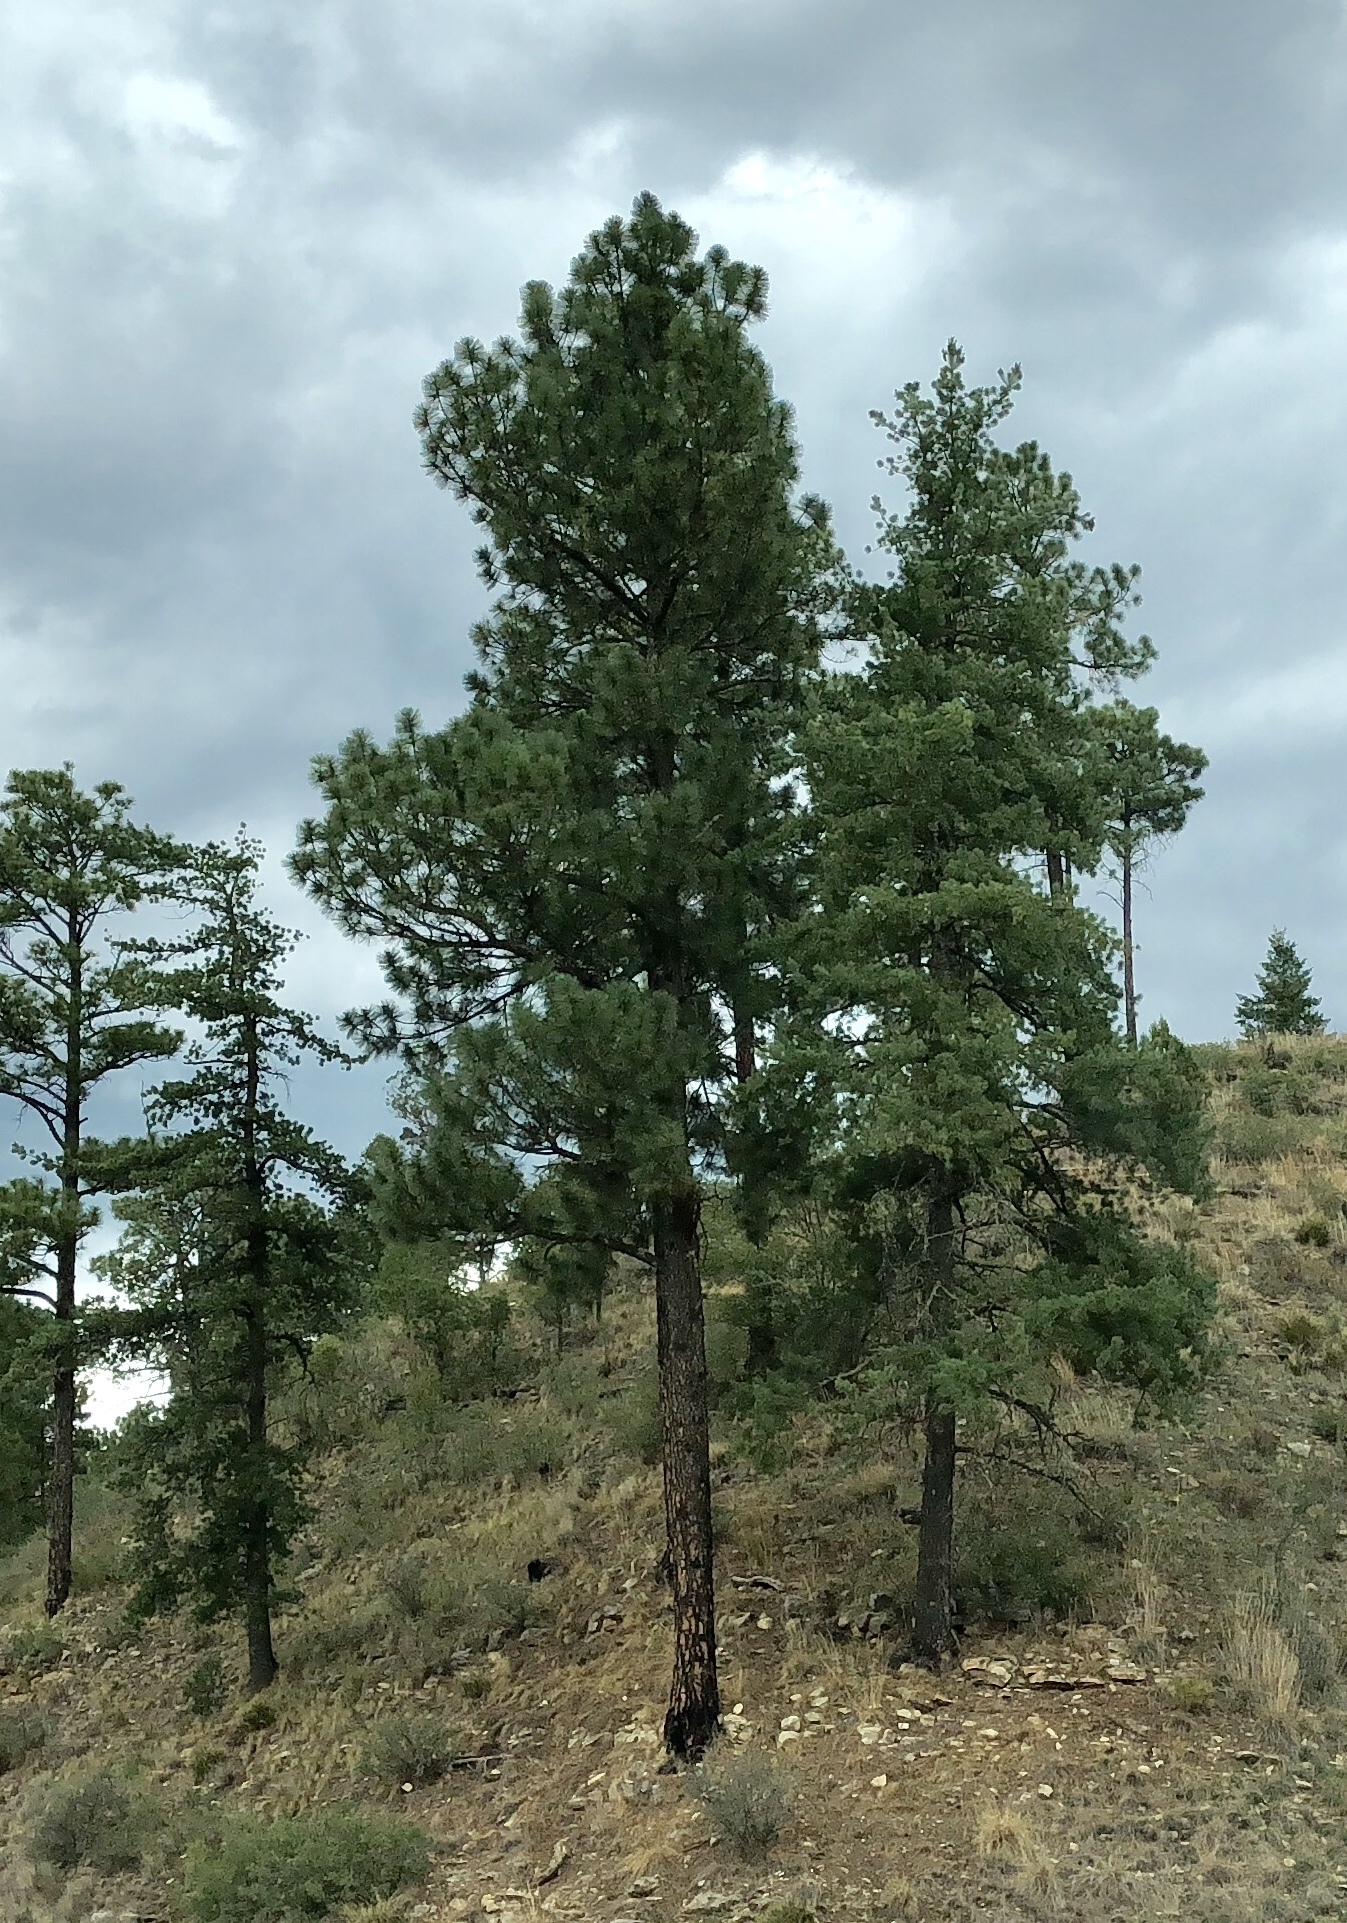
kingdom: Plantae
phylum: Tracheophyta
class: Pinopsida
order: Pinales
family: Pinaceae
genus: Pinus
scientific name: Pinus ponderosa
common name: Western yellow-pine
